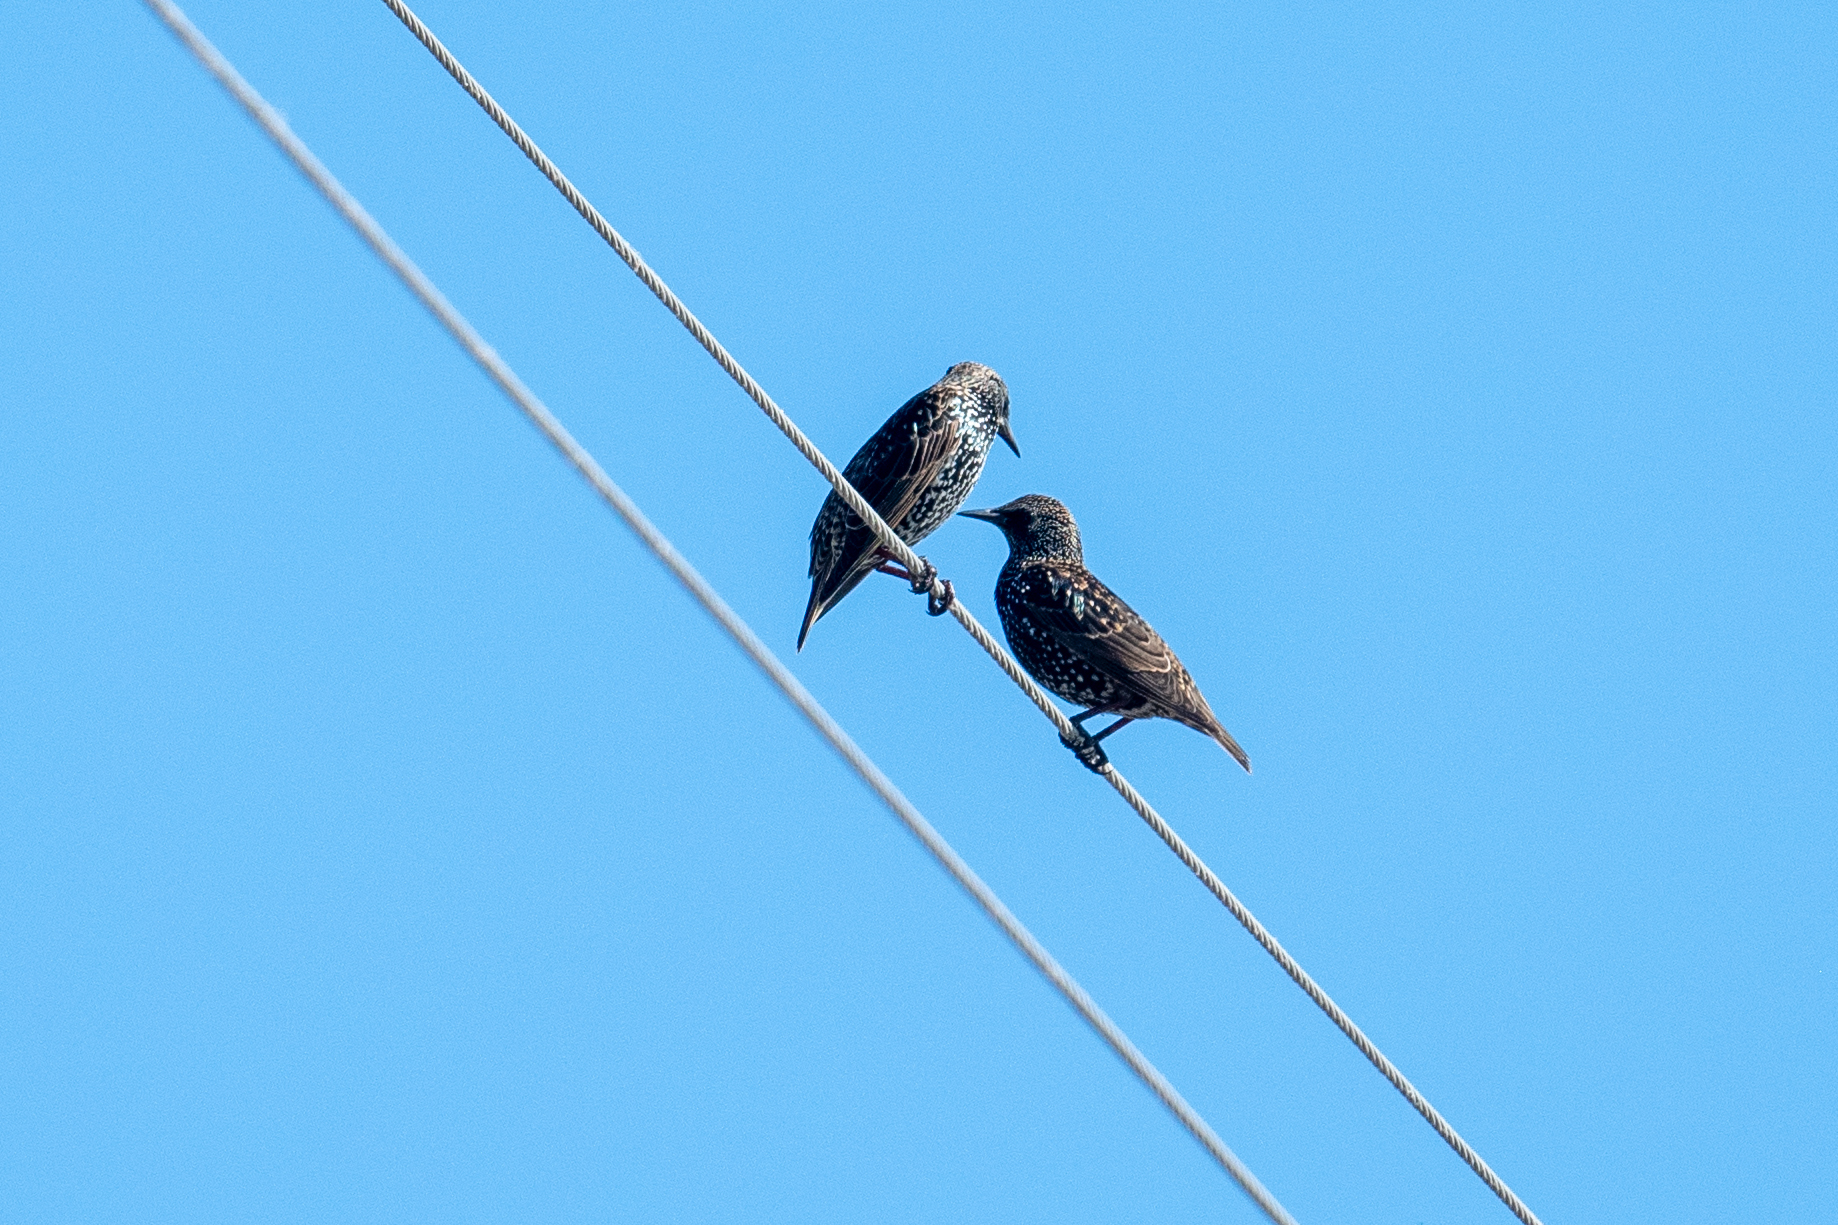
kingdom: Animalia
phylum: Chordata
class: Aves
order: Passeriformes
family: Sturnidae
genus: Sturnus
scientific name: Sturnus vulgaris
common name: Common starling
